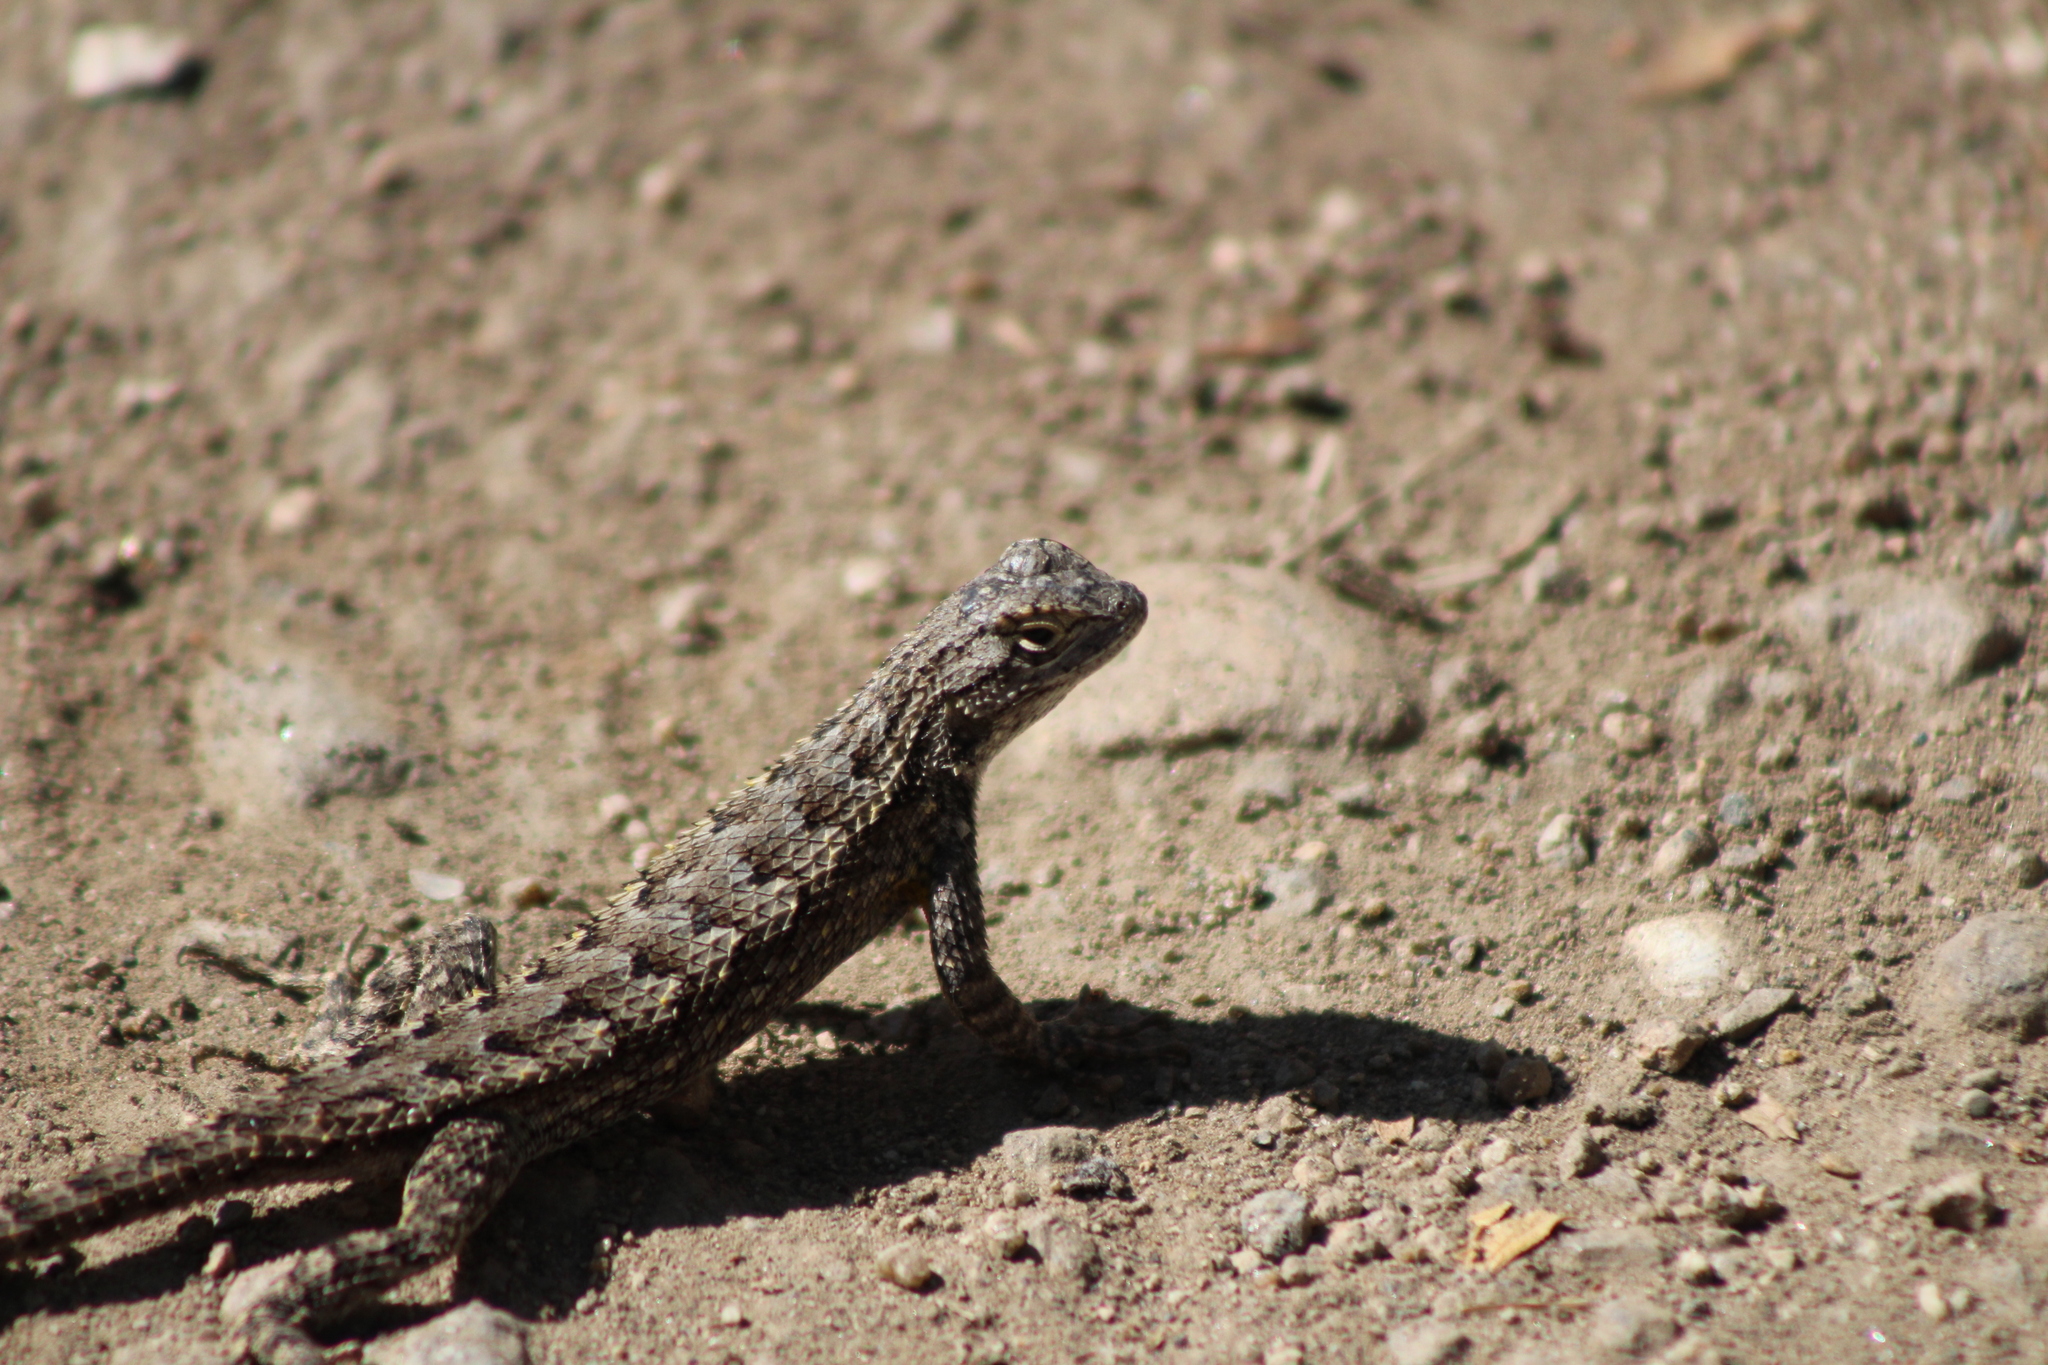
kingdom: Animalia
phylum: Chordata
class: Squamata
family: Phrynosomatidae
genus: Sceloporus
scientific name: Sceloporus occidentalis
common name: Western fence lizard
